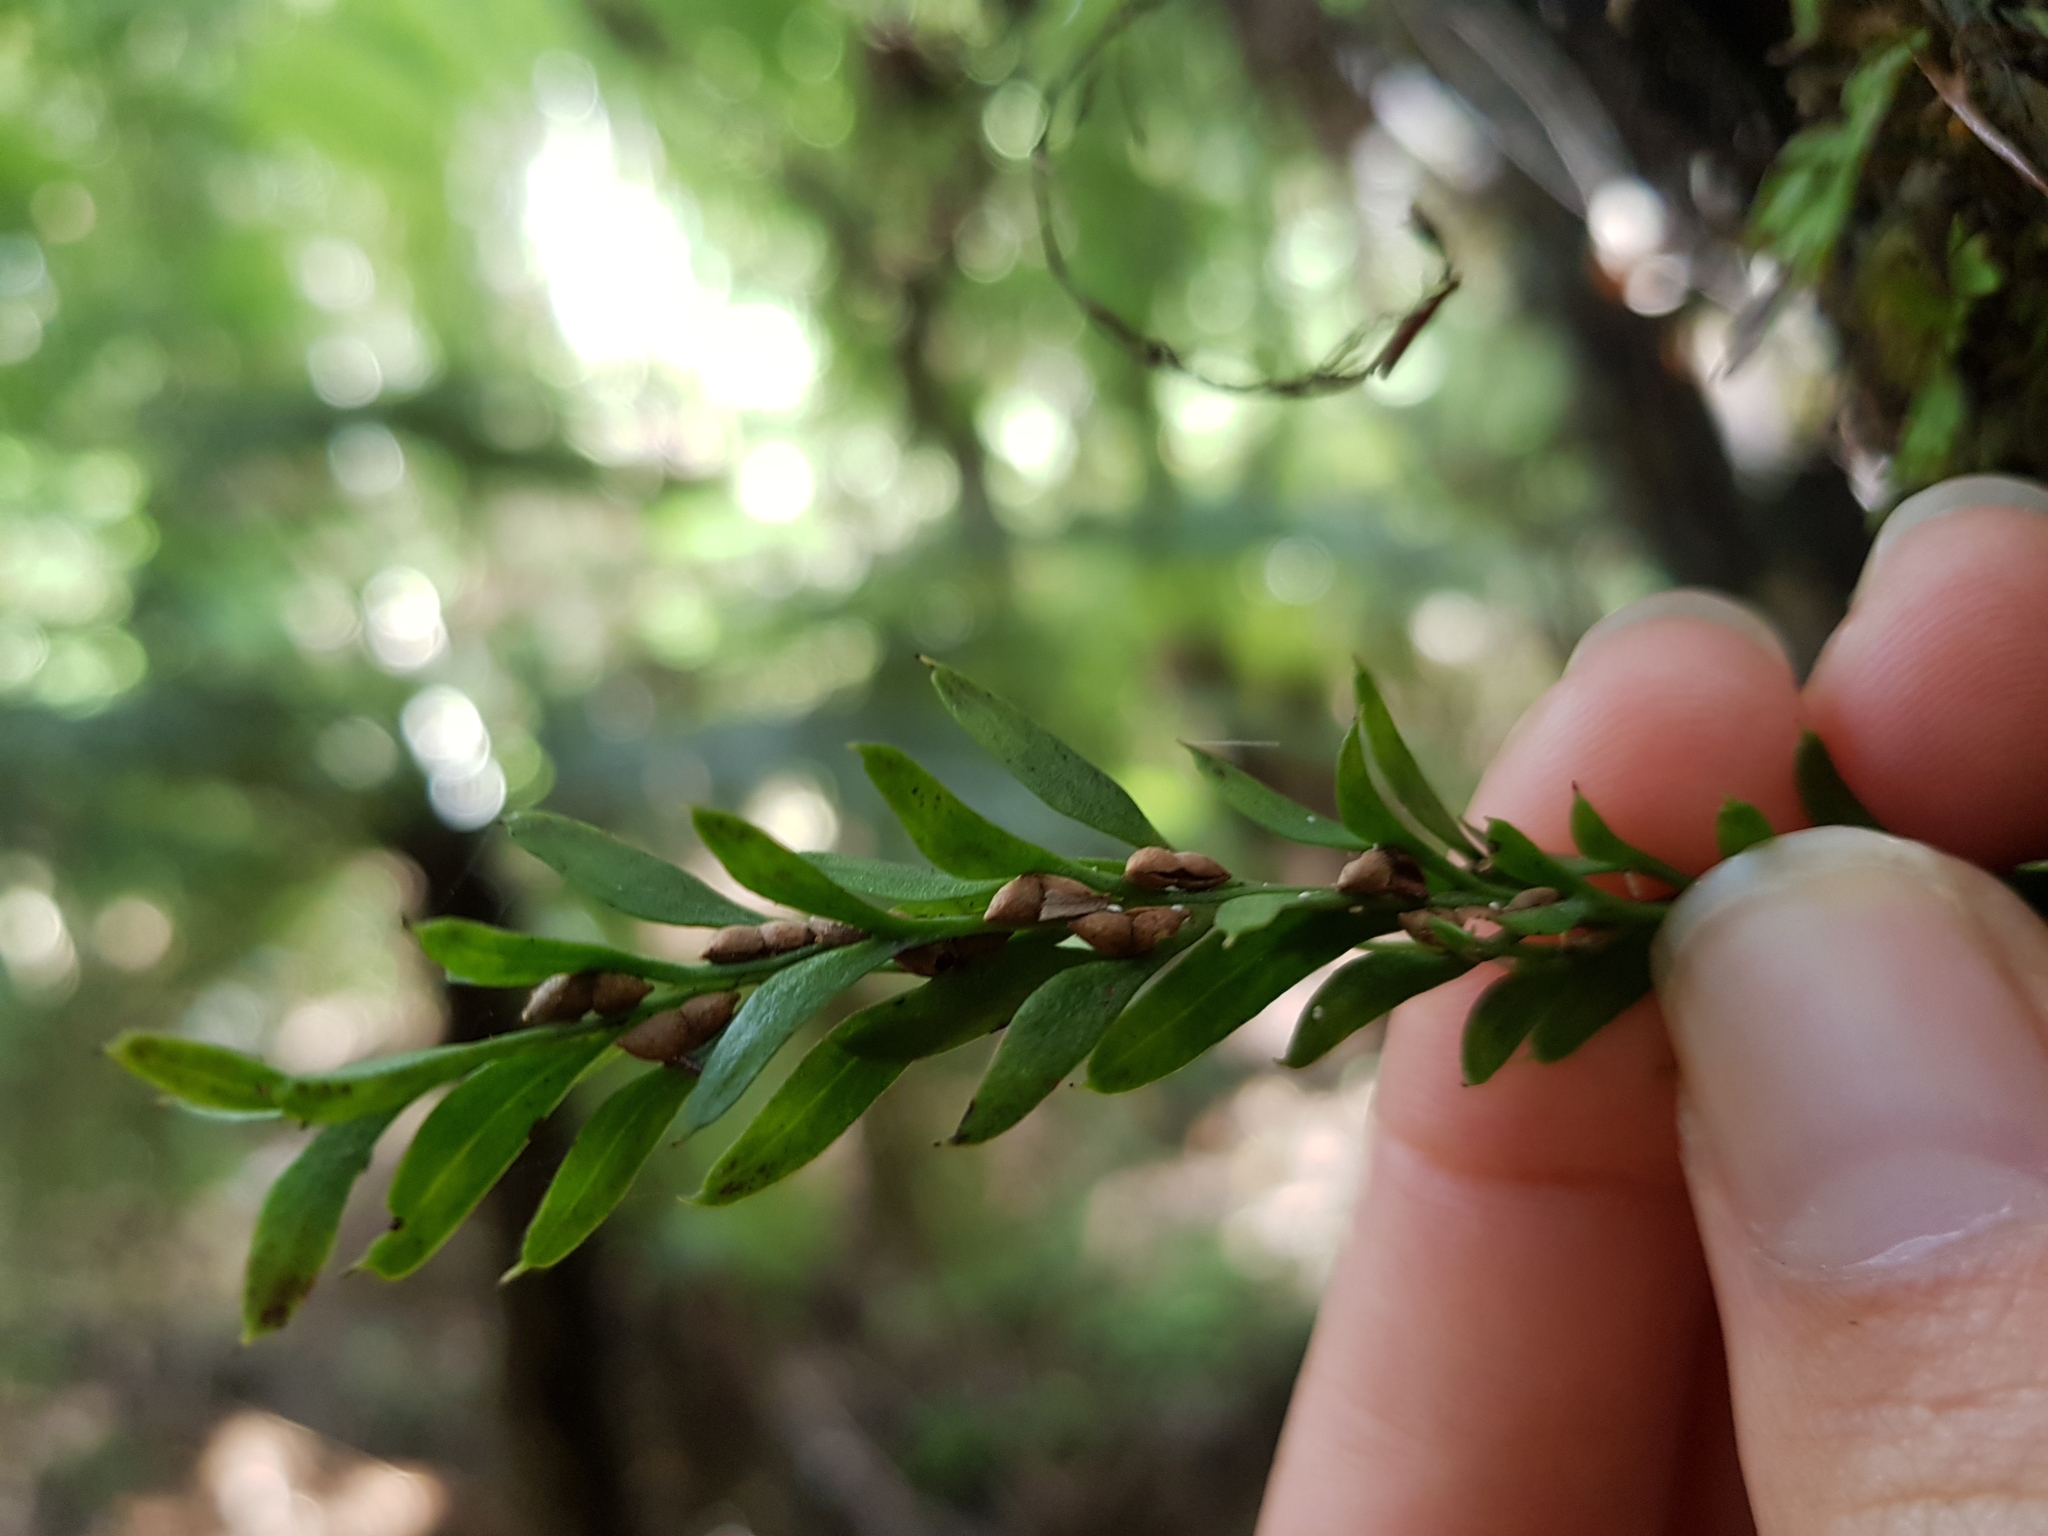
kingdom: Plantae
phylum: Tracheophyta
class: Polypodiopsida
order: Psilotales
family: Psilotaceae
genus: Tmesipteris
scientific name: Tmesipteris tannensis
